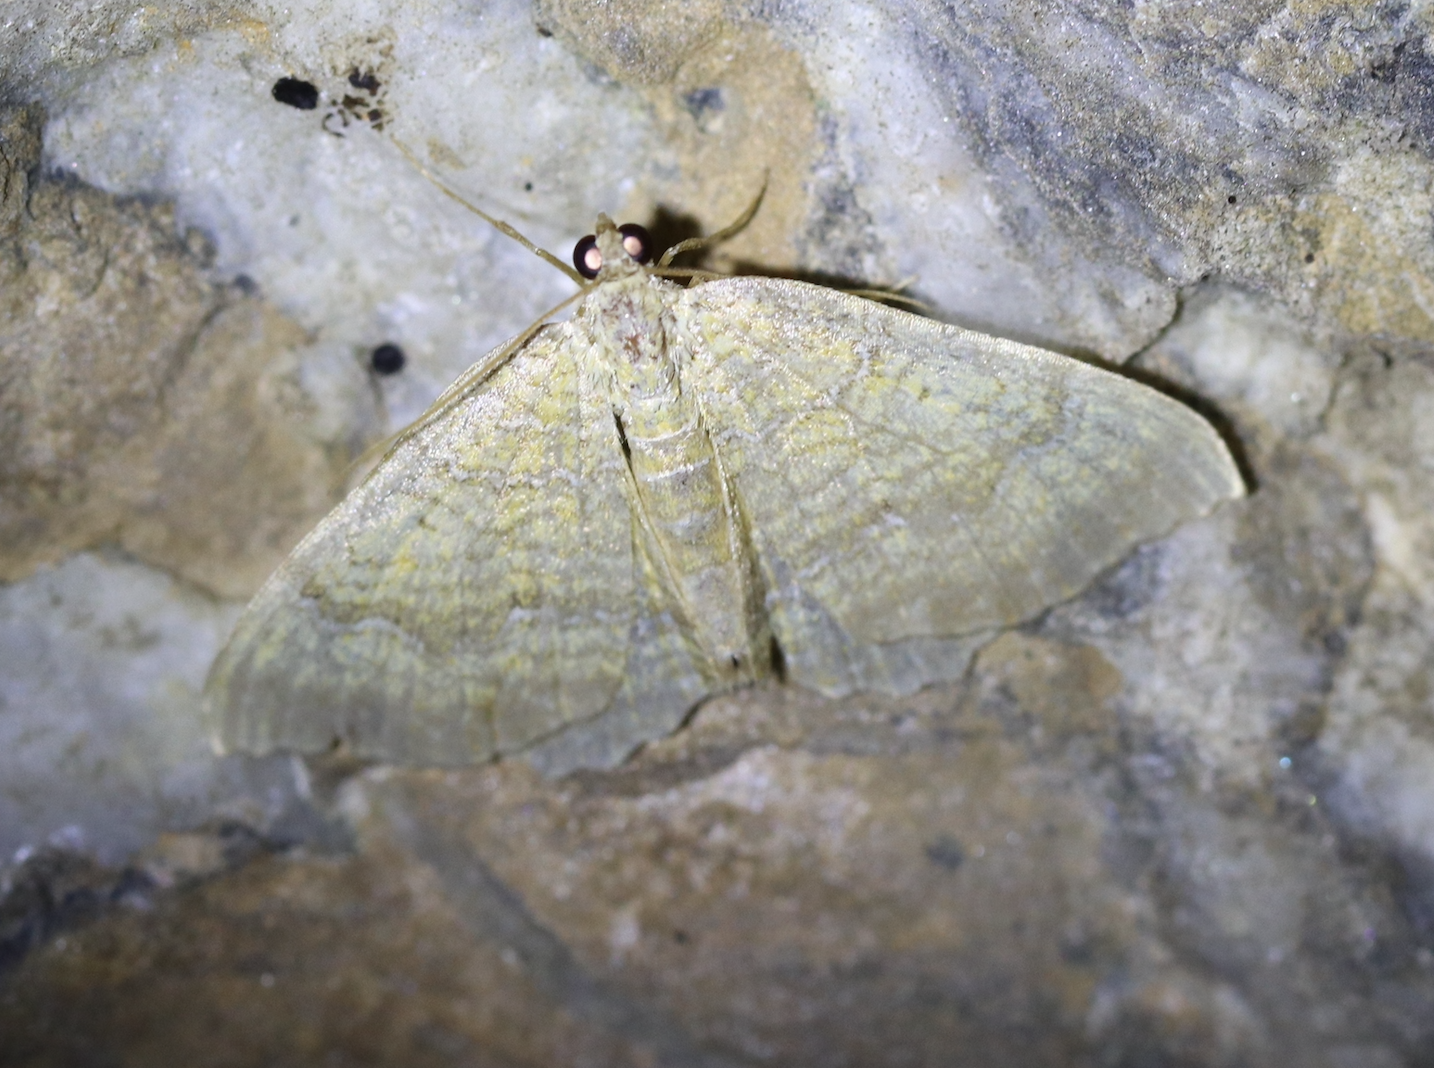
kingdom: Animalia
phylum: Arthropoda
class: Insecta
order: Lepidoptera
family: Geometridae
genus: Camptogramma
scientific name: Camptogramma bilineata
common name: Yellow shell
